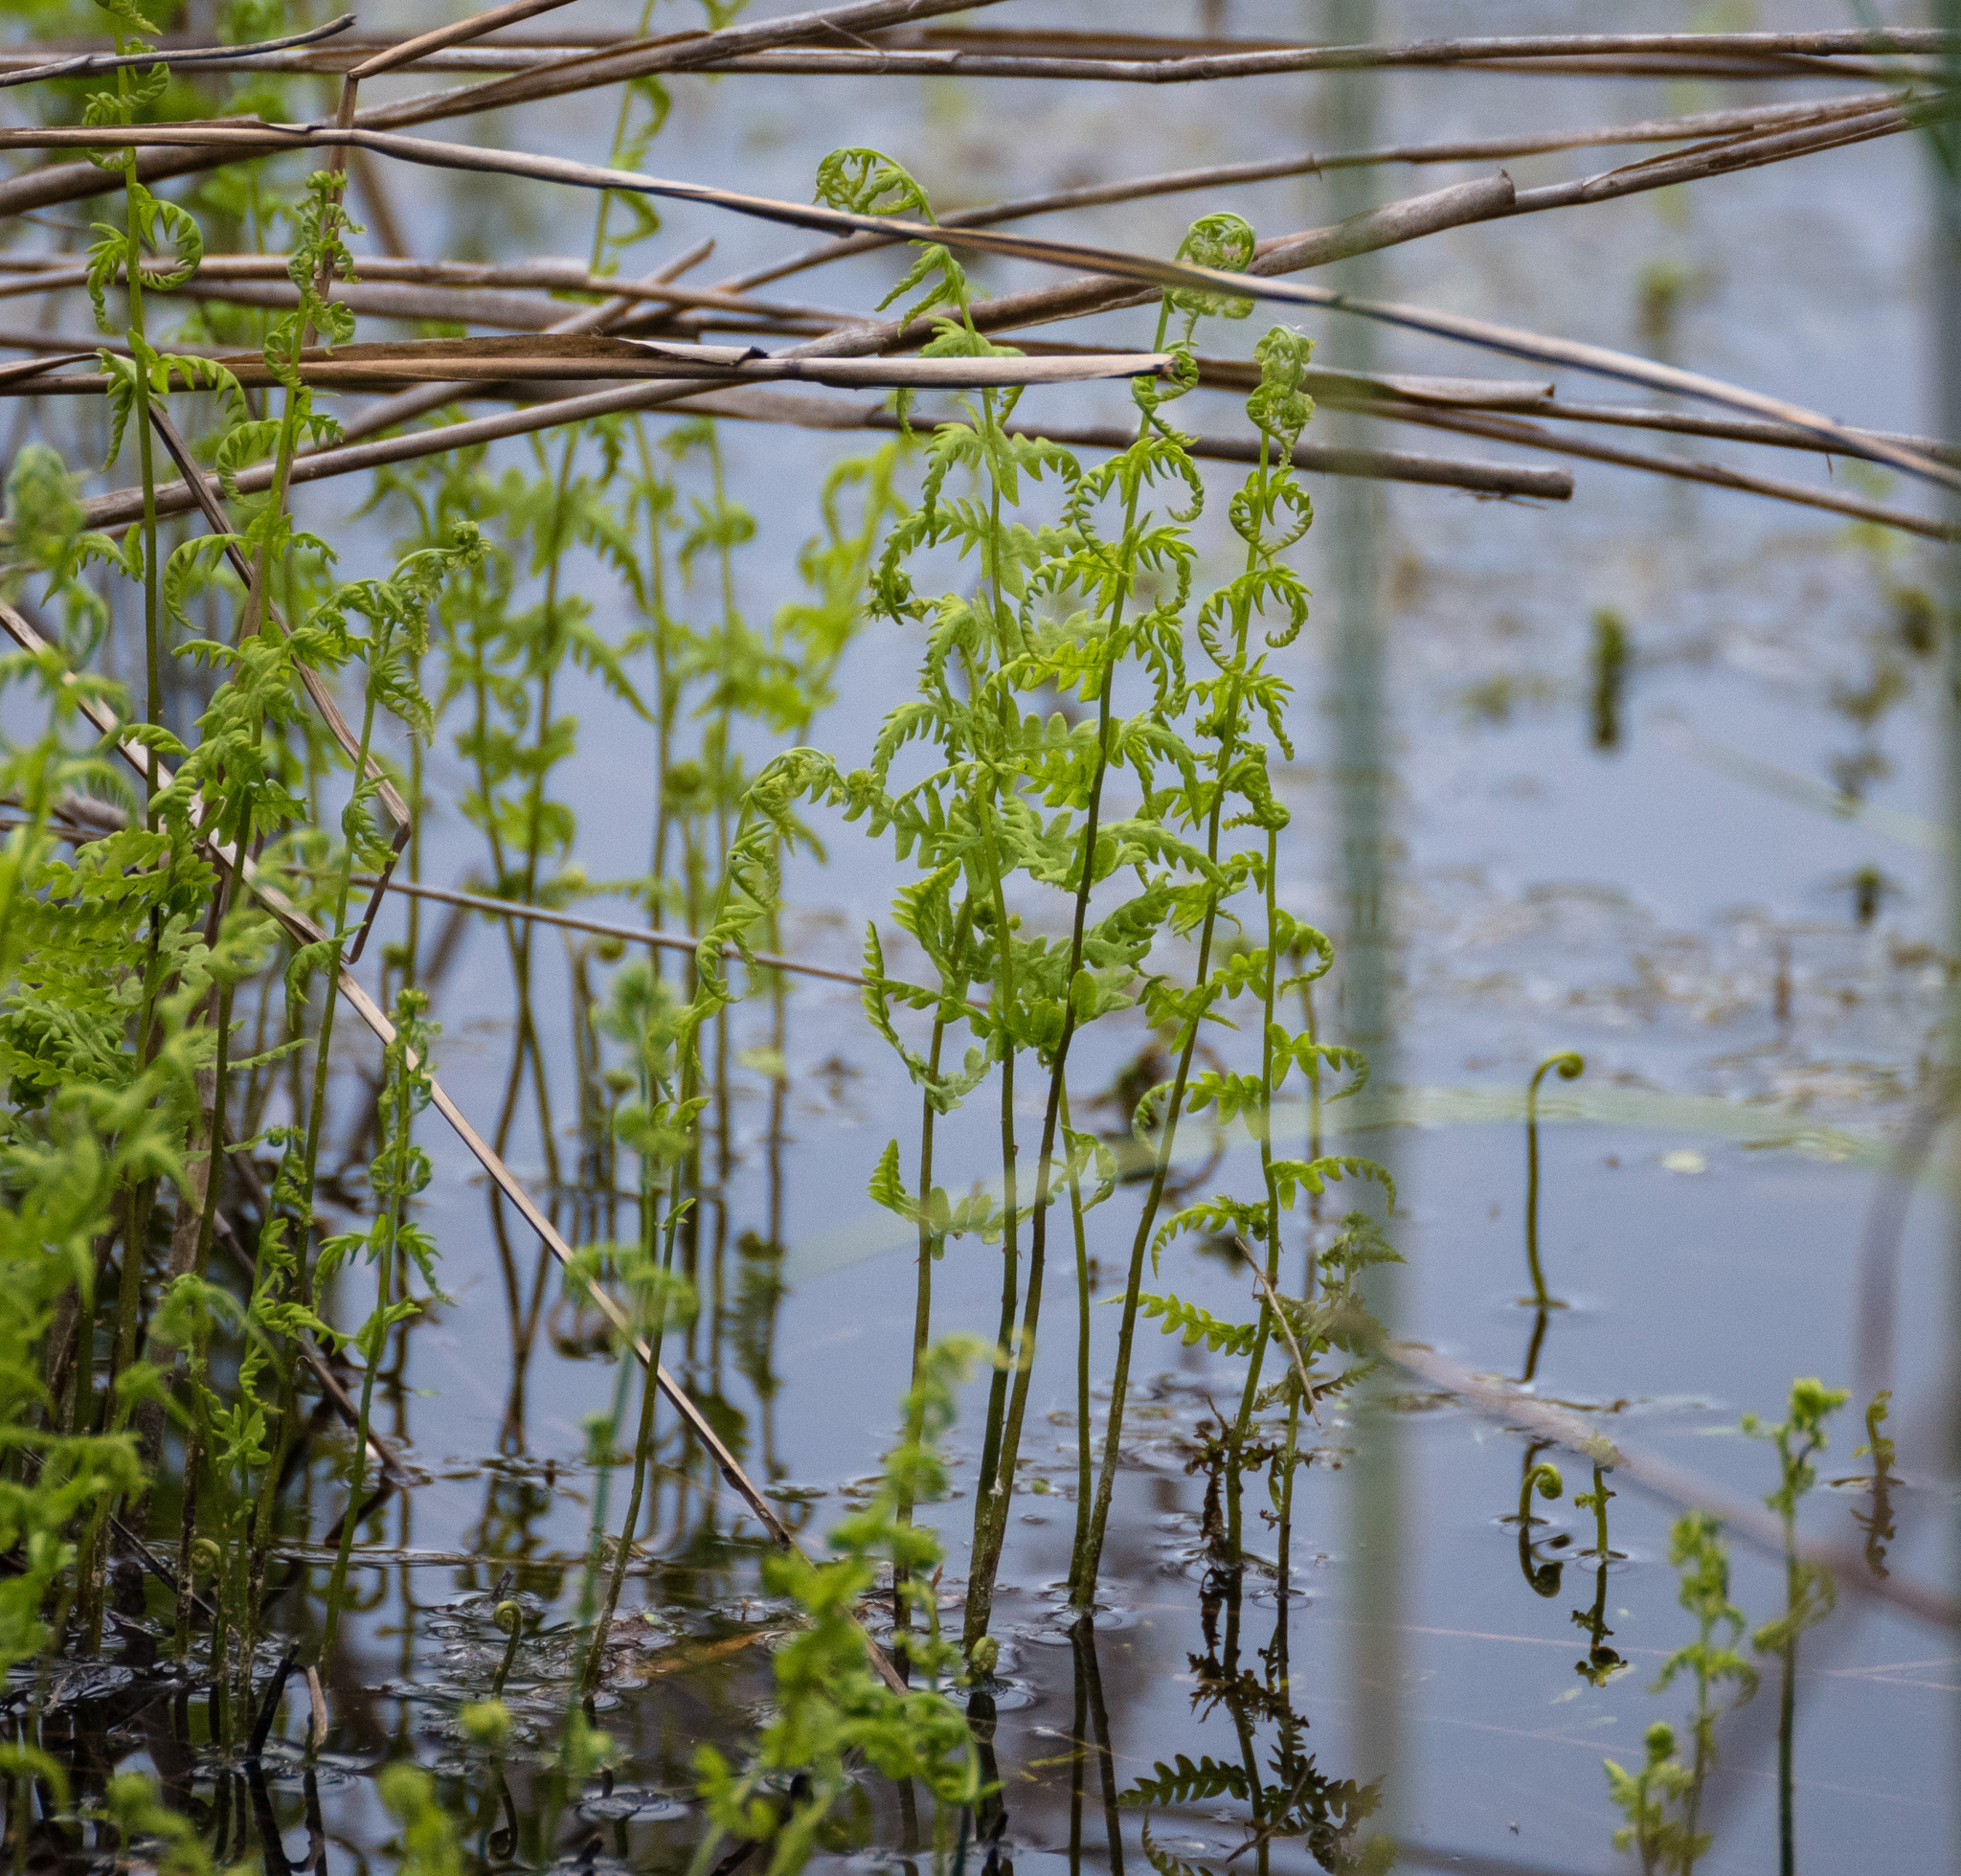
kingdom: Plantae
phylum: Tracheophyta
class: Polypodiopsida
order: Polypodiales
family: Thelypteridaceae
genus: Thelypteris
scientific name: Thelypteris palustris
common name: Marsh fern
